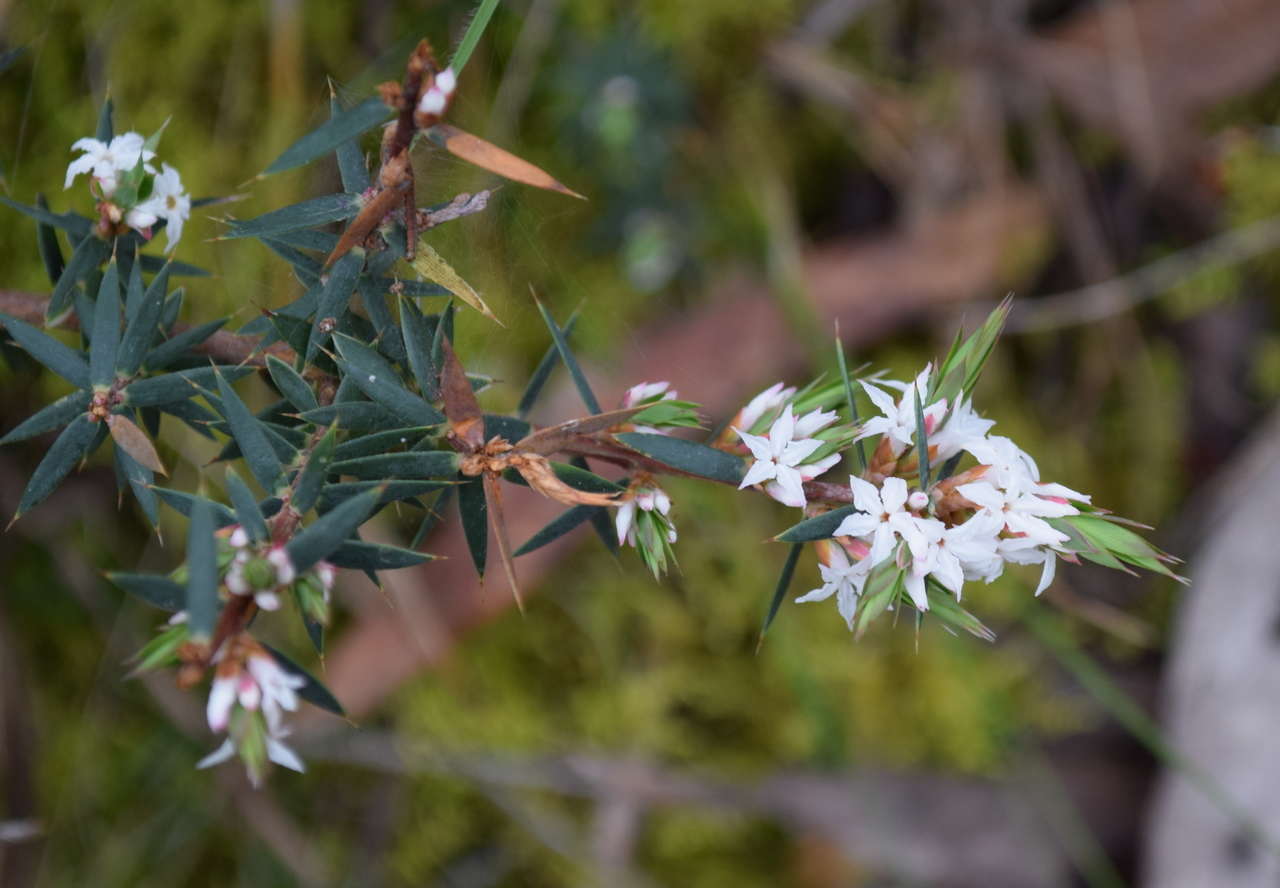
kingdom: Plantae
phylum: Tracheophyta
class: Magnoliopsida
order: Ericales
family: Ericaceae
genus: Brachyloma
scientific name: Brachyloma depressum
